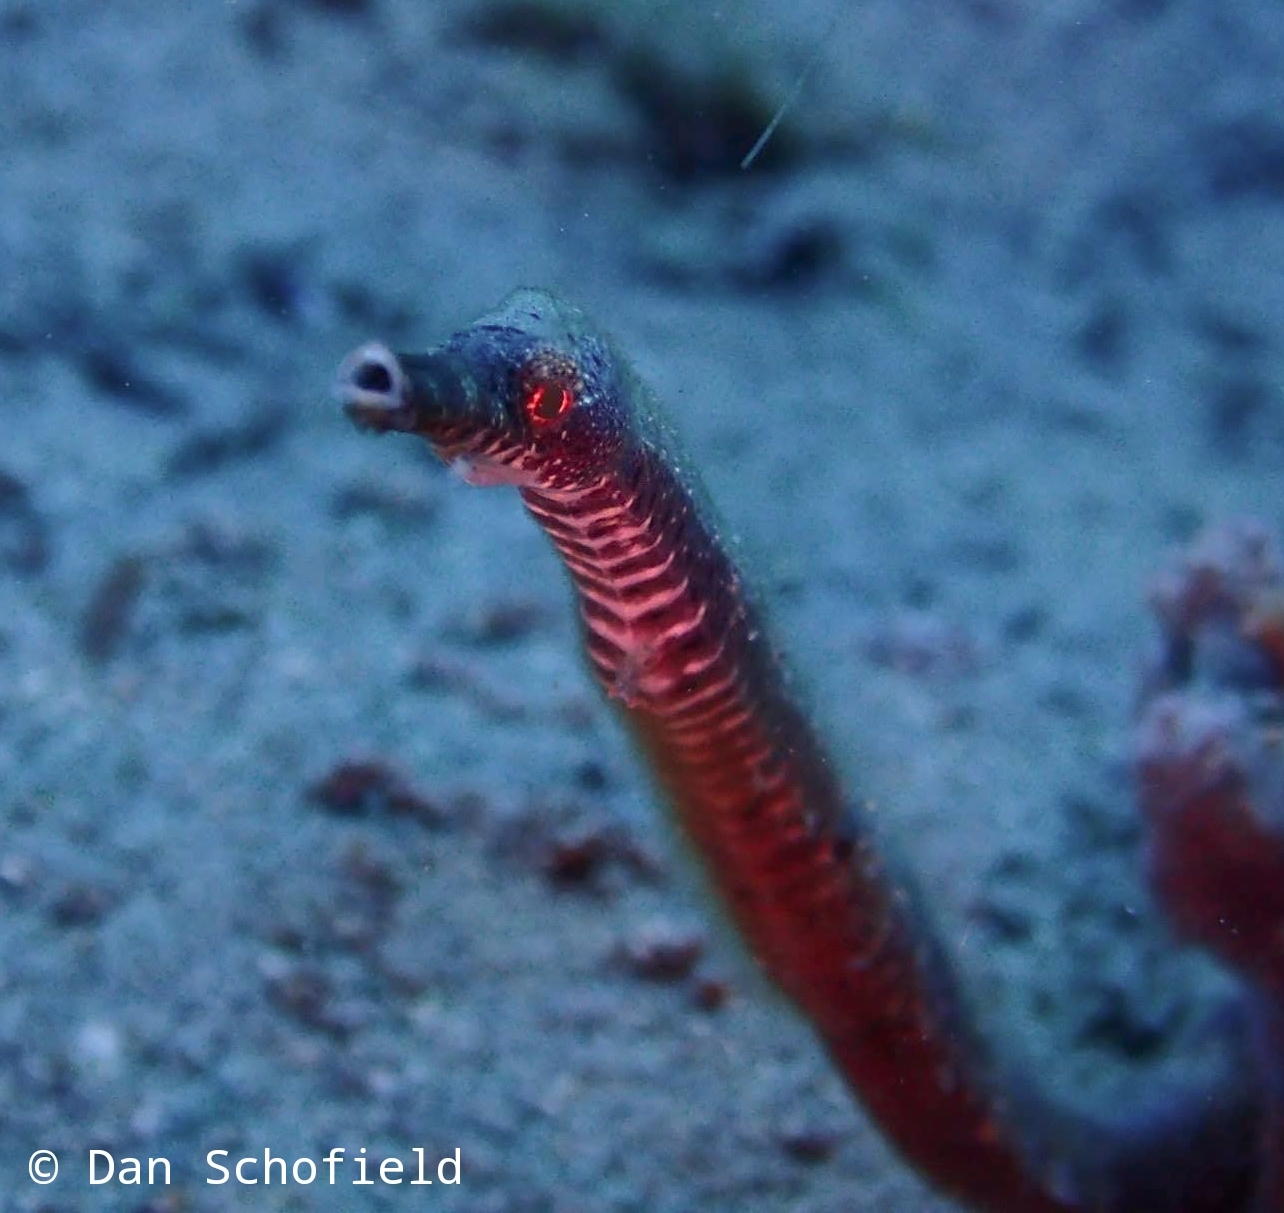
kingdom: Animalia
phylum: Chordata
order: Syngnathiformes
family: Syngnathidae
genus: Trachyrhamphus
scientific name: Trachyrhamphus bicoarctatus
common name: Double-ended pipefish
